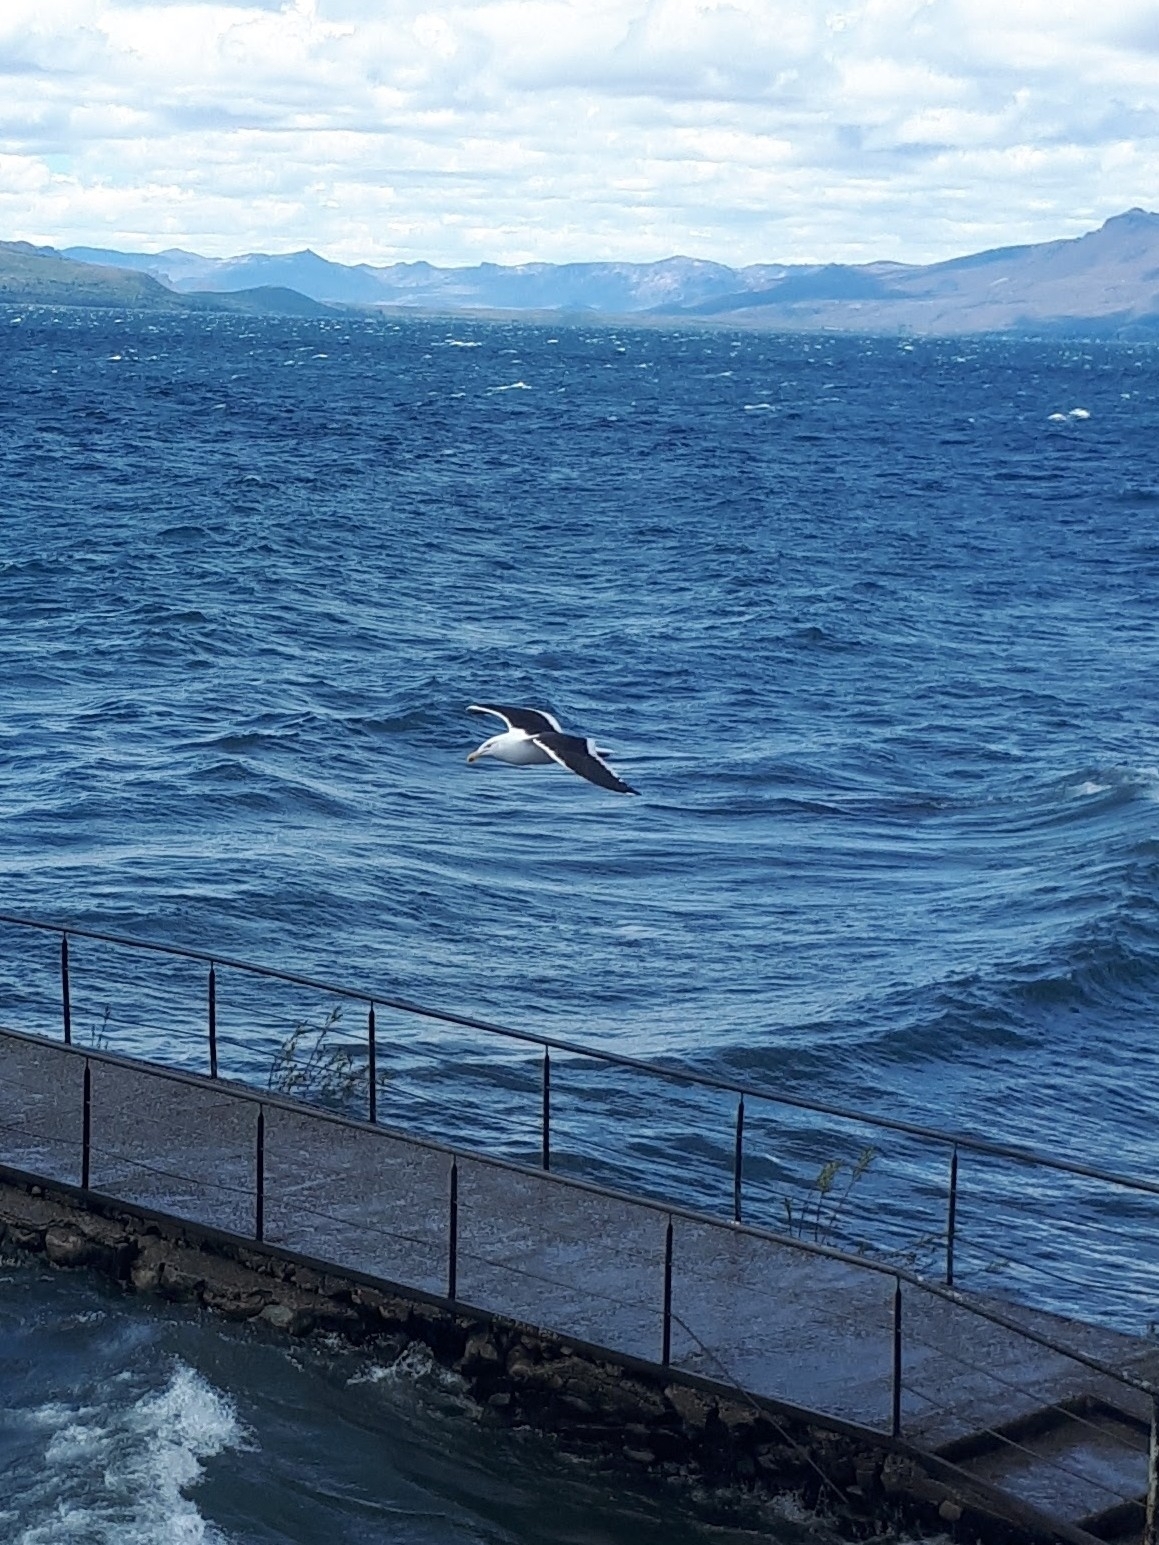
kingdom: Animalia
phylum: Chordata
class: Aves
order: Charadriiformes
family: Laridae
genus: Larus
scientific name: Larus dominicanus
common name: Kelp gull
